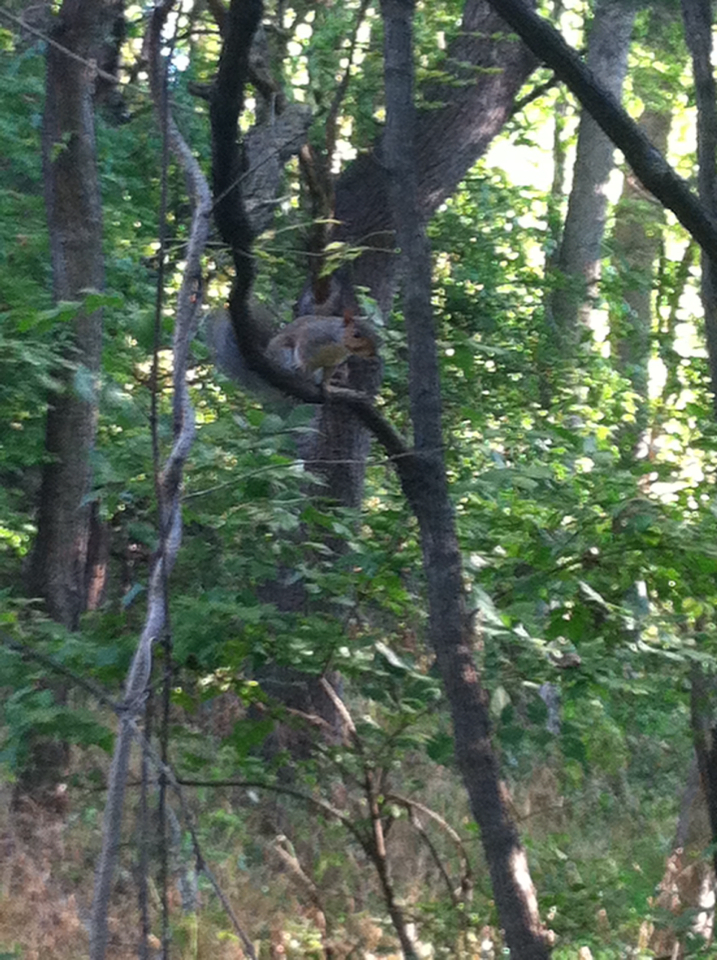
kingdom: Animalia
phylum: Chordata
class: Mammalia
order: Rodentia
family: Sciuridae
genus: Sciurus
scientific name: Sciurus carolinensis
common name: Eastern gray squirrel
